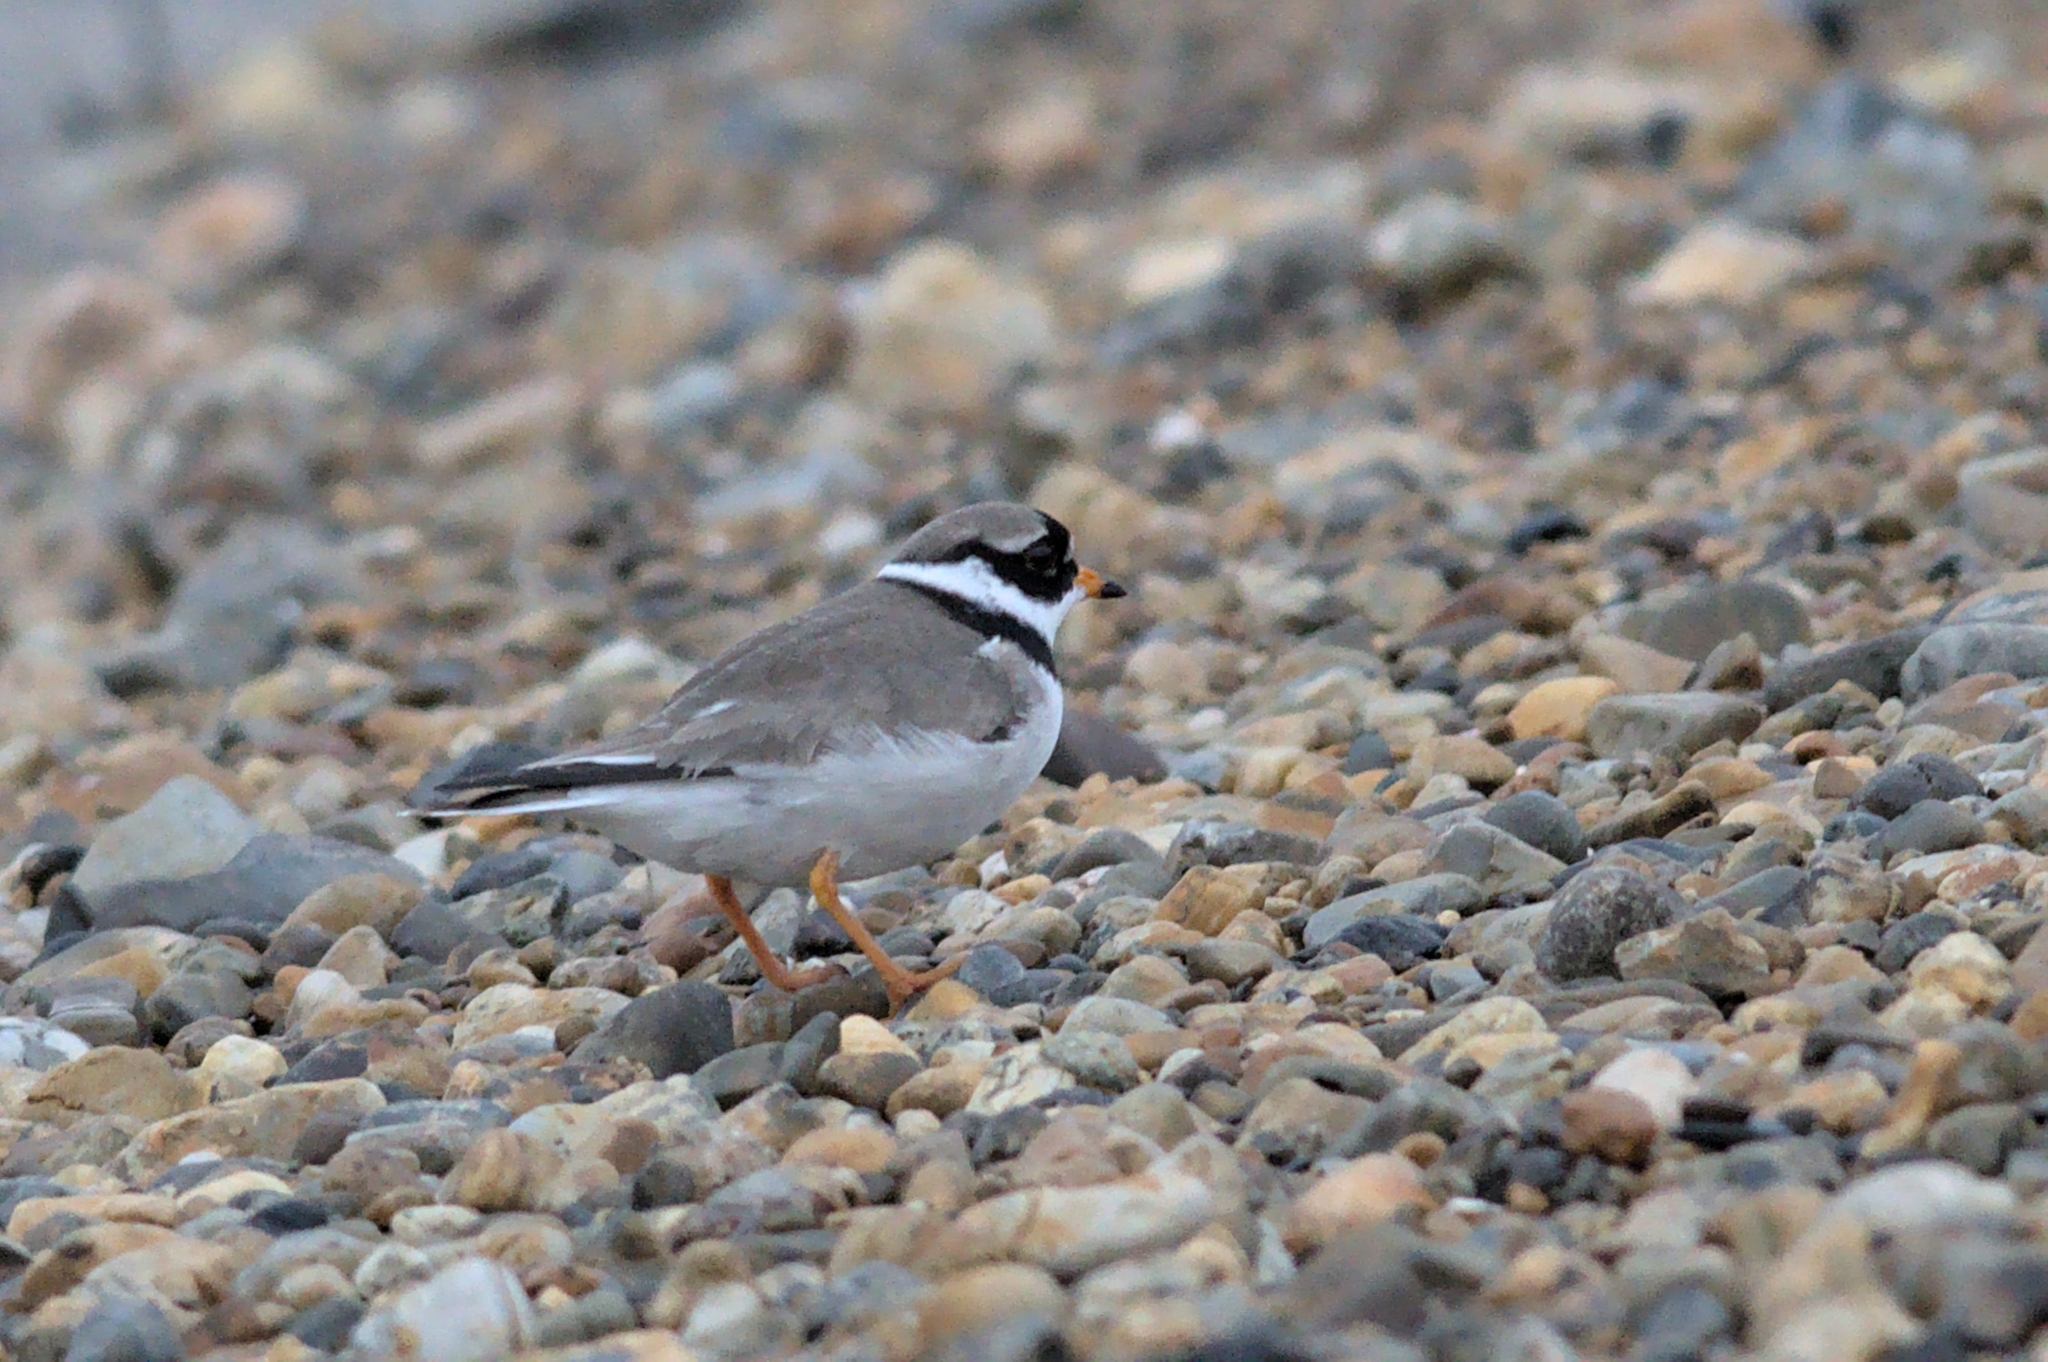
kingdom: Animalia
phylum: Chordata
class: Aves
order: Charadriiformes
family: Charadriidae
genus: Charadrius
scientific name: Charadrius hiaticula
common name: Common ringed plover
